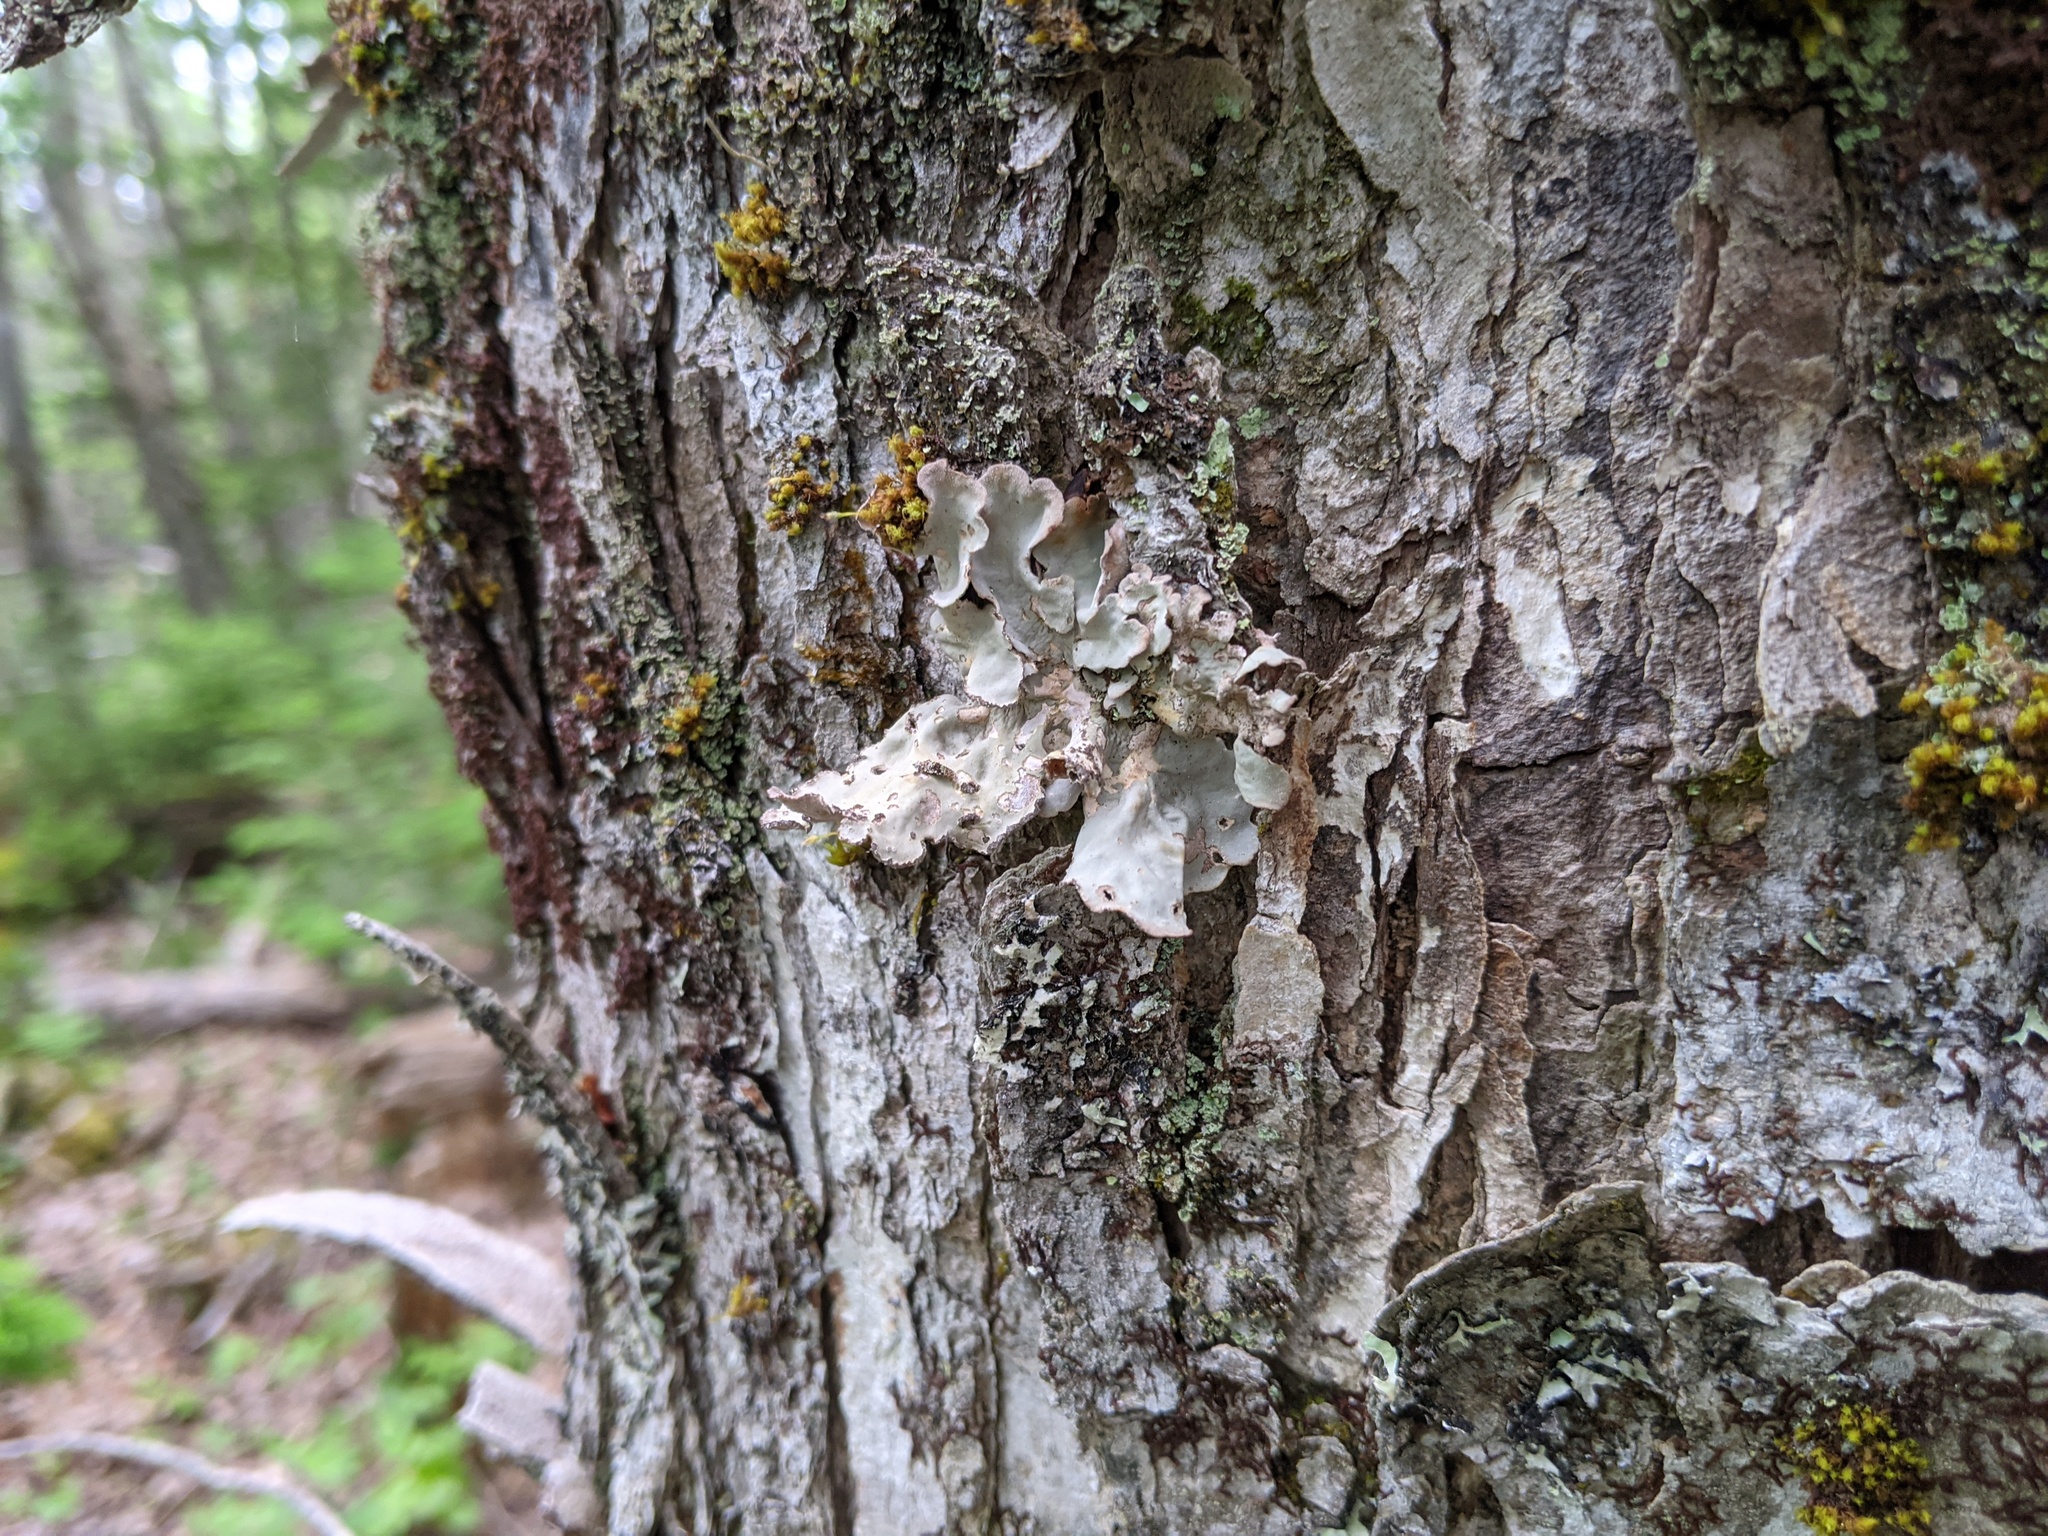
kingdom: Fungi
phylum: Ascomycota
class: Lecanoromycetes
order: Peltigerales
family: Lobariaceae
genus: Lobarina
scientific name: Lobarina scrobiculata
